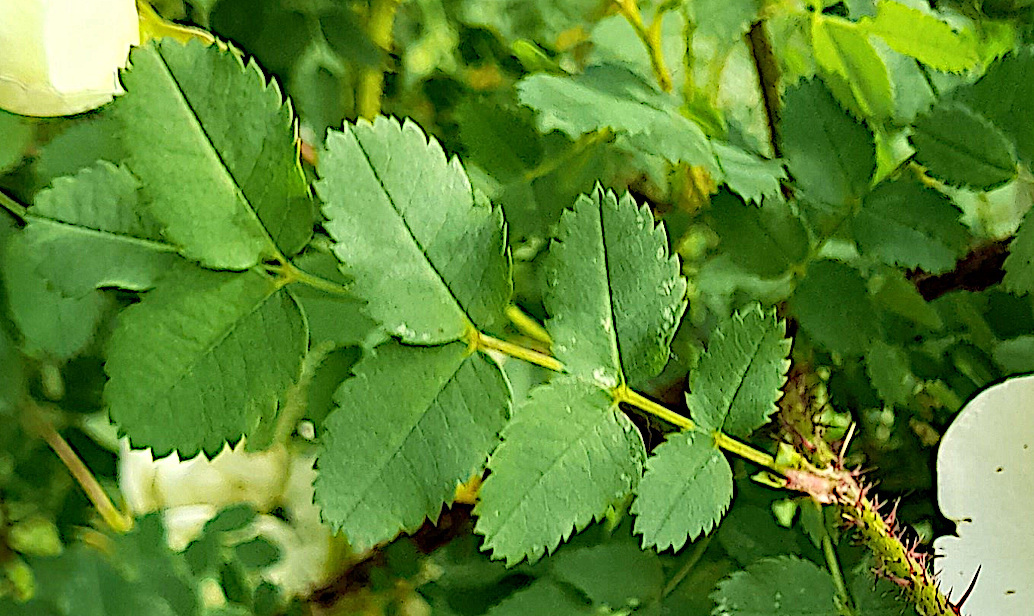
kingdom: Plantae
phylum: Tracheophyta
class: Magnoliopsida
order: Rosales
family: Rosaceae
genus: Rosa
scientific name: Rosa spinosissima
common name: Burnet rose
